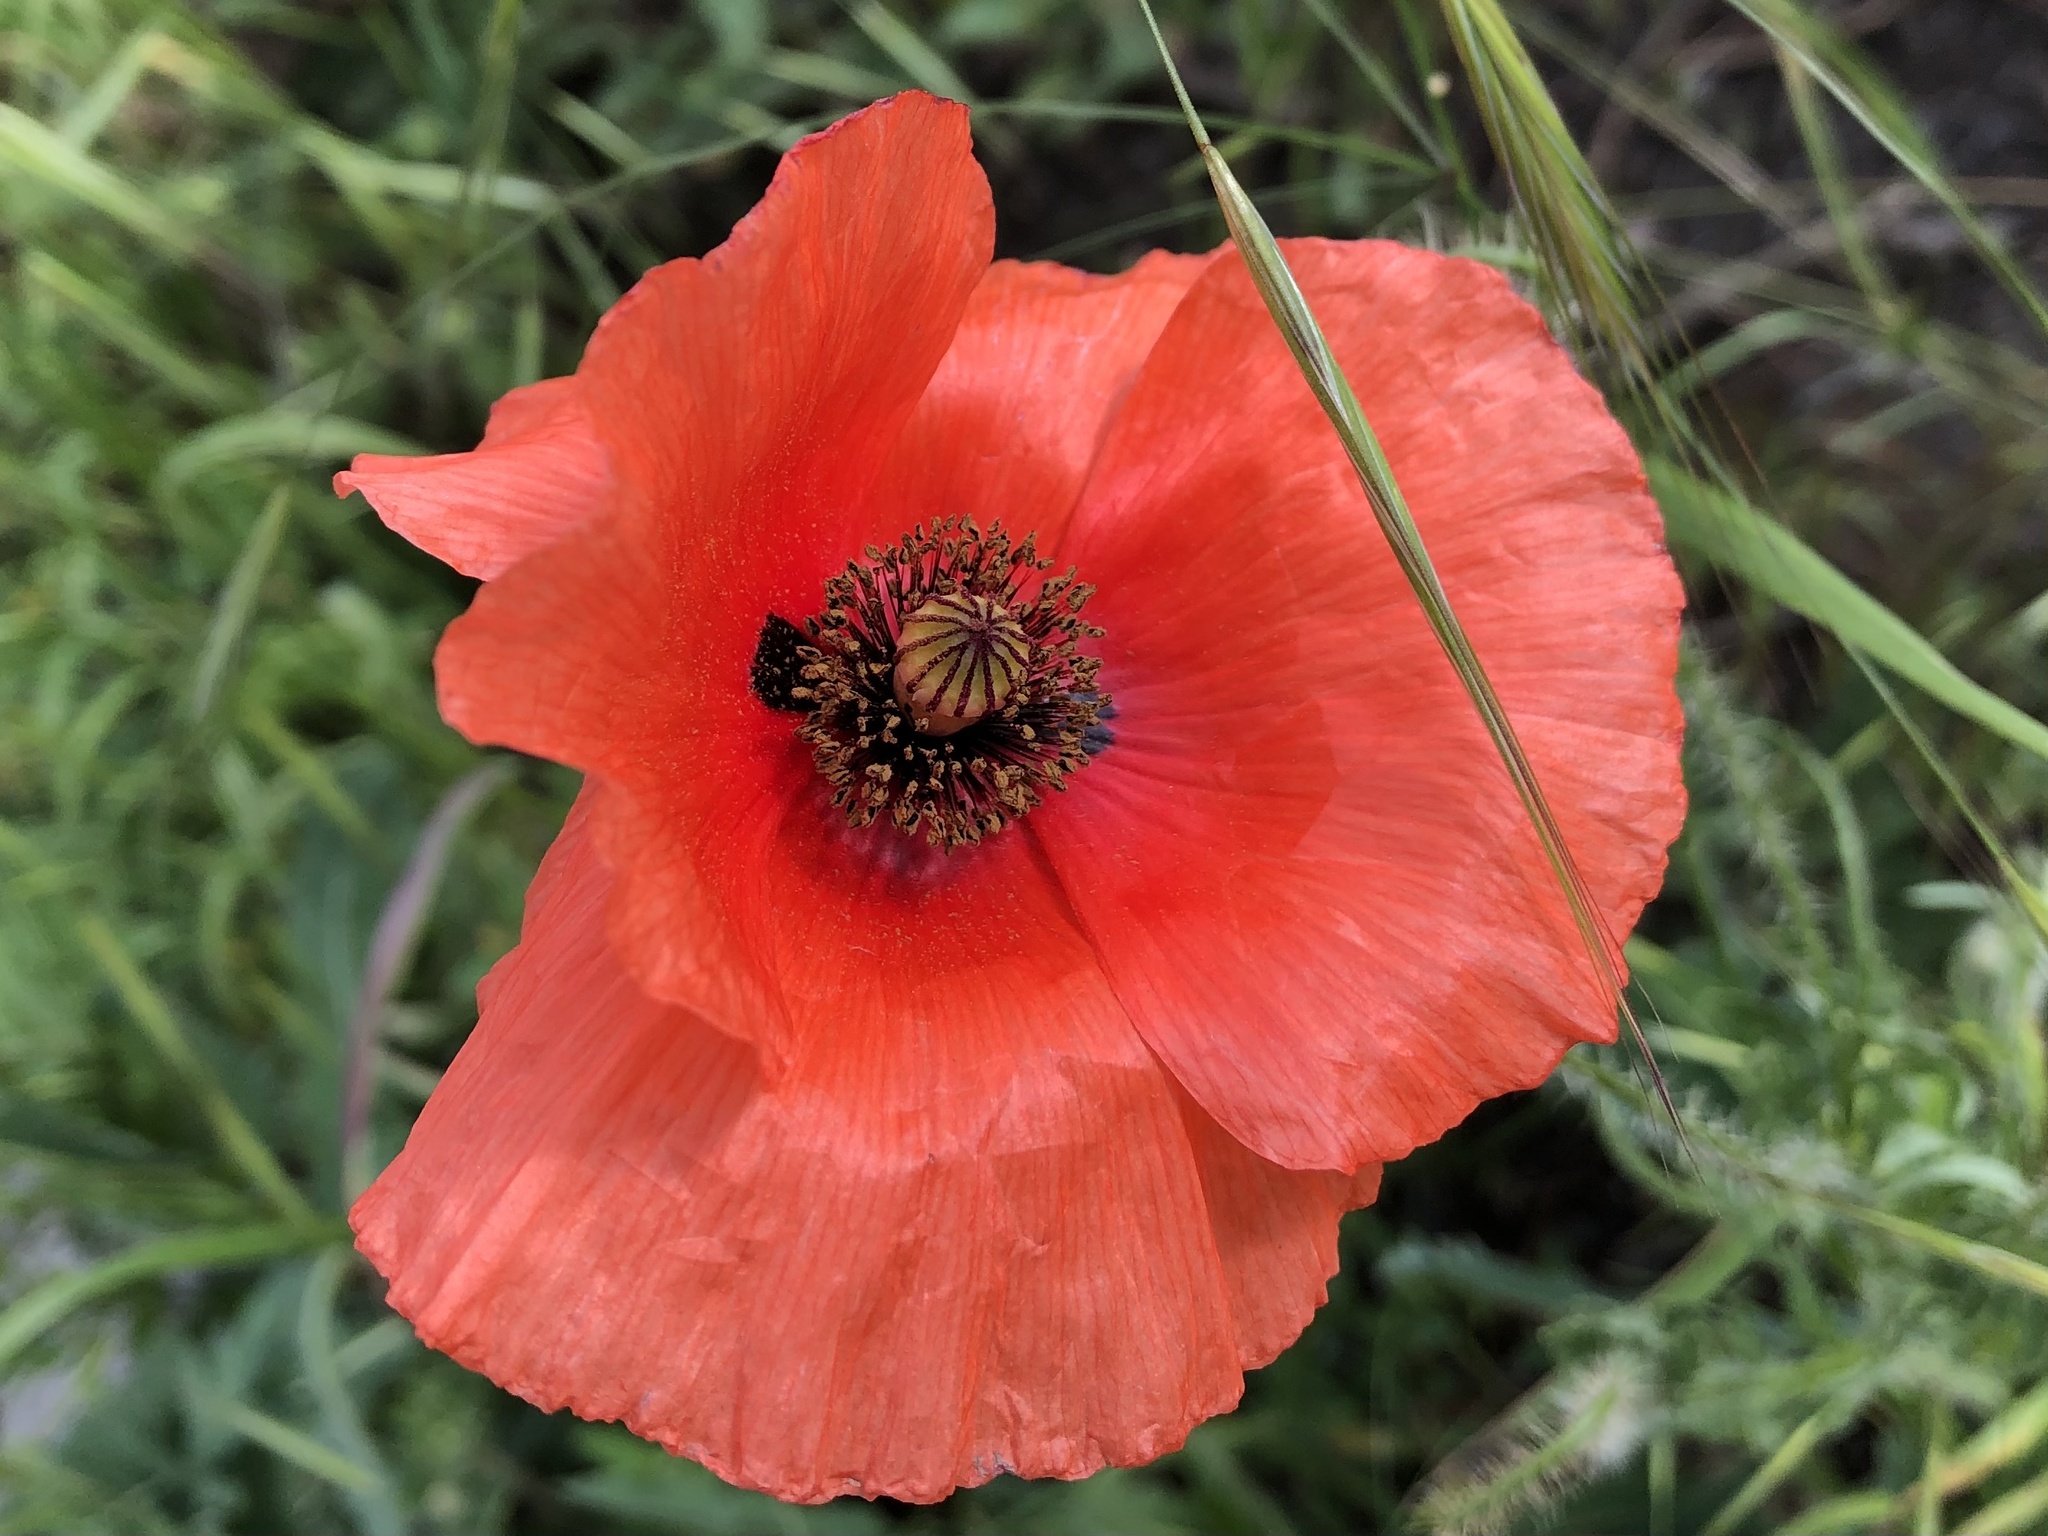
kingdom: Plantae
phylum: Tracheophyta
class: Magnoliopsida
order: Ranunculales
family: Papaveraceae
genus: Papaver
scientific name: Papaver rhoeas
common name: Corn poppy
